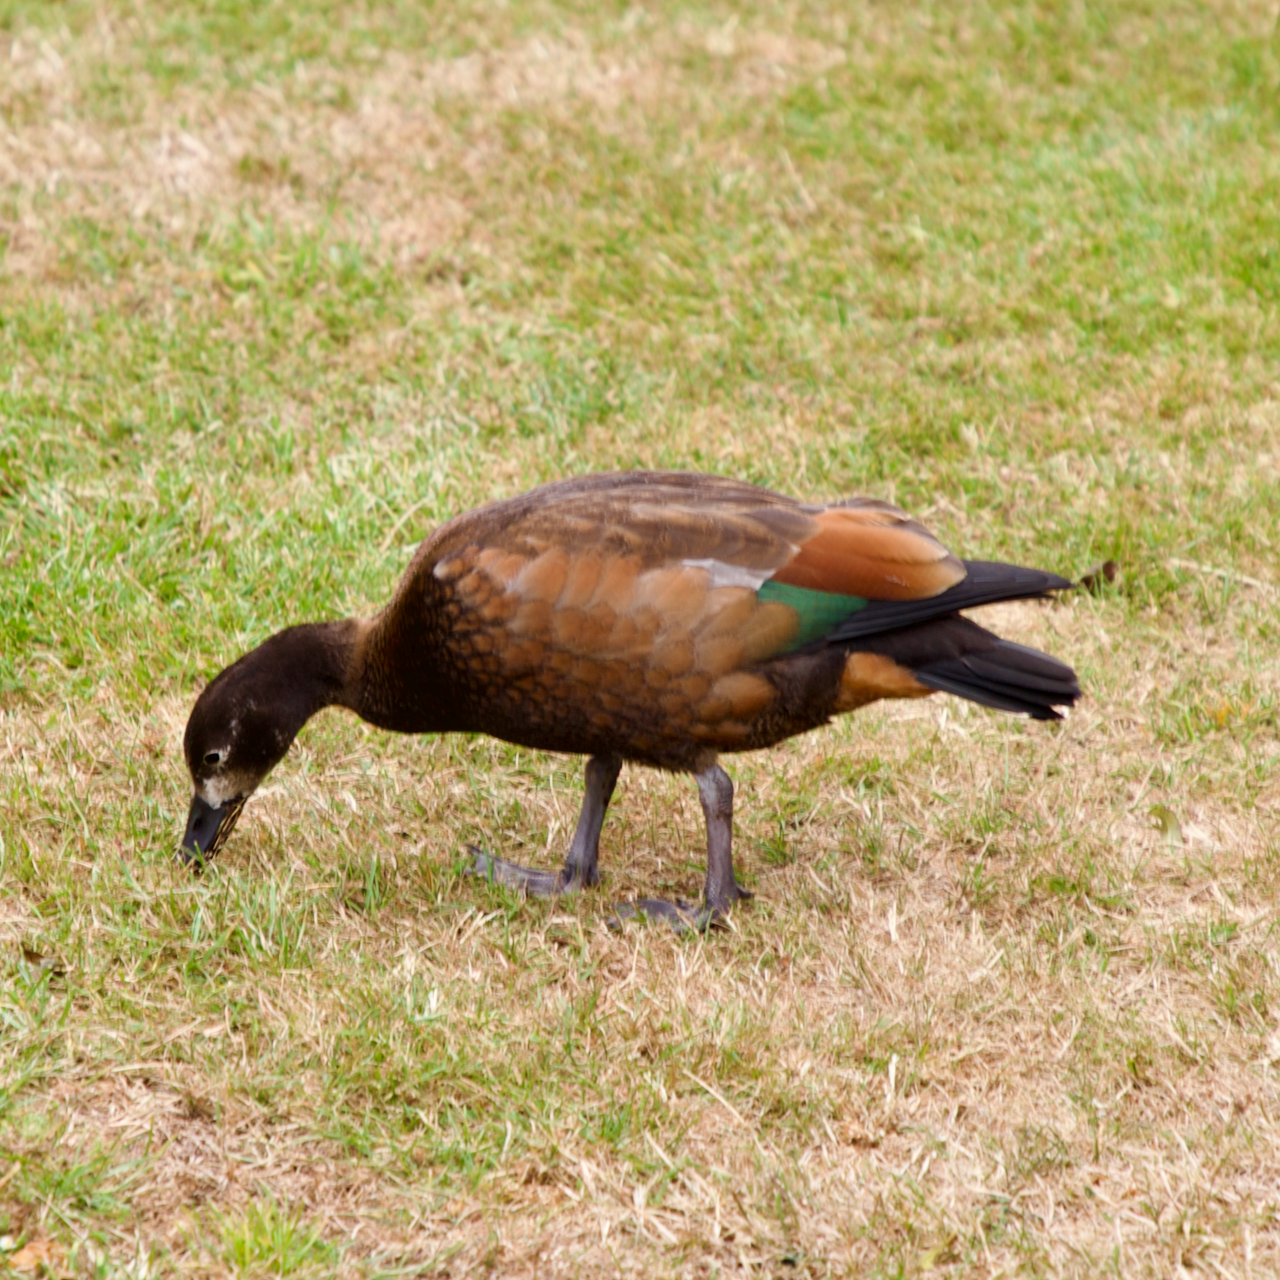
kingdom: Animalia
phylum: Chordata
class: Aves
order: Anseriformes
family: Anatidae
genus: Tadorna
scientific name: Tadorna variegata
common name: Paradise shelduck
